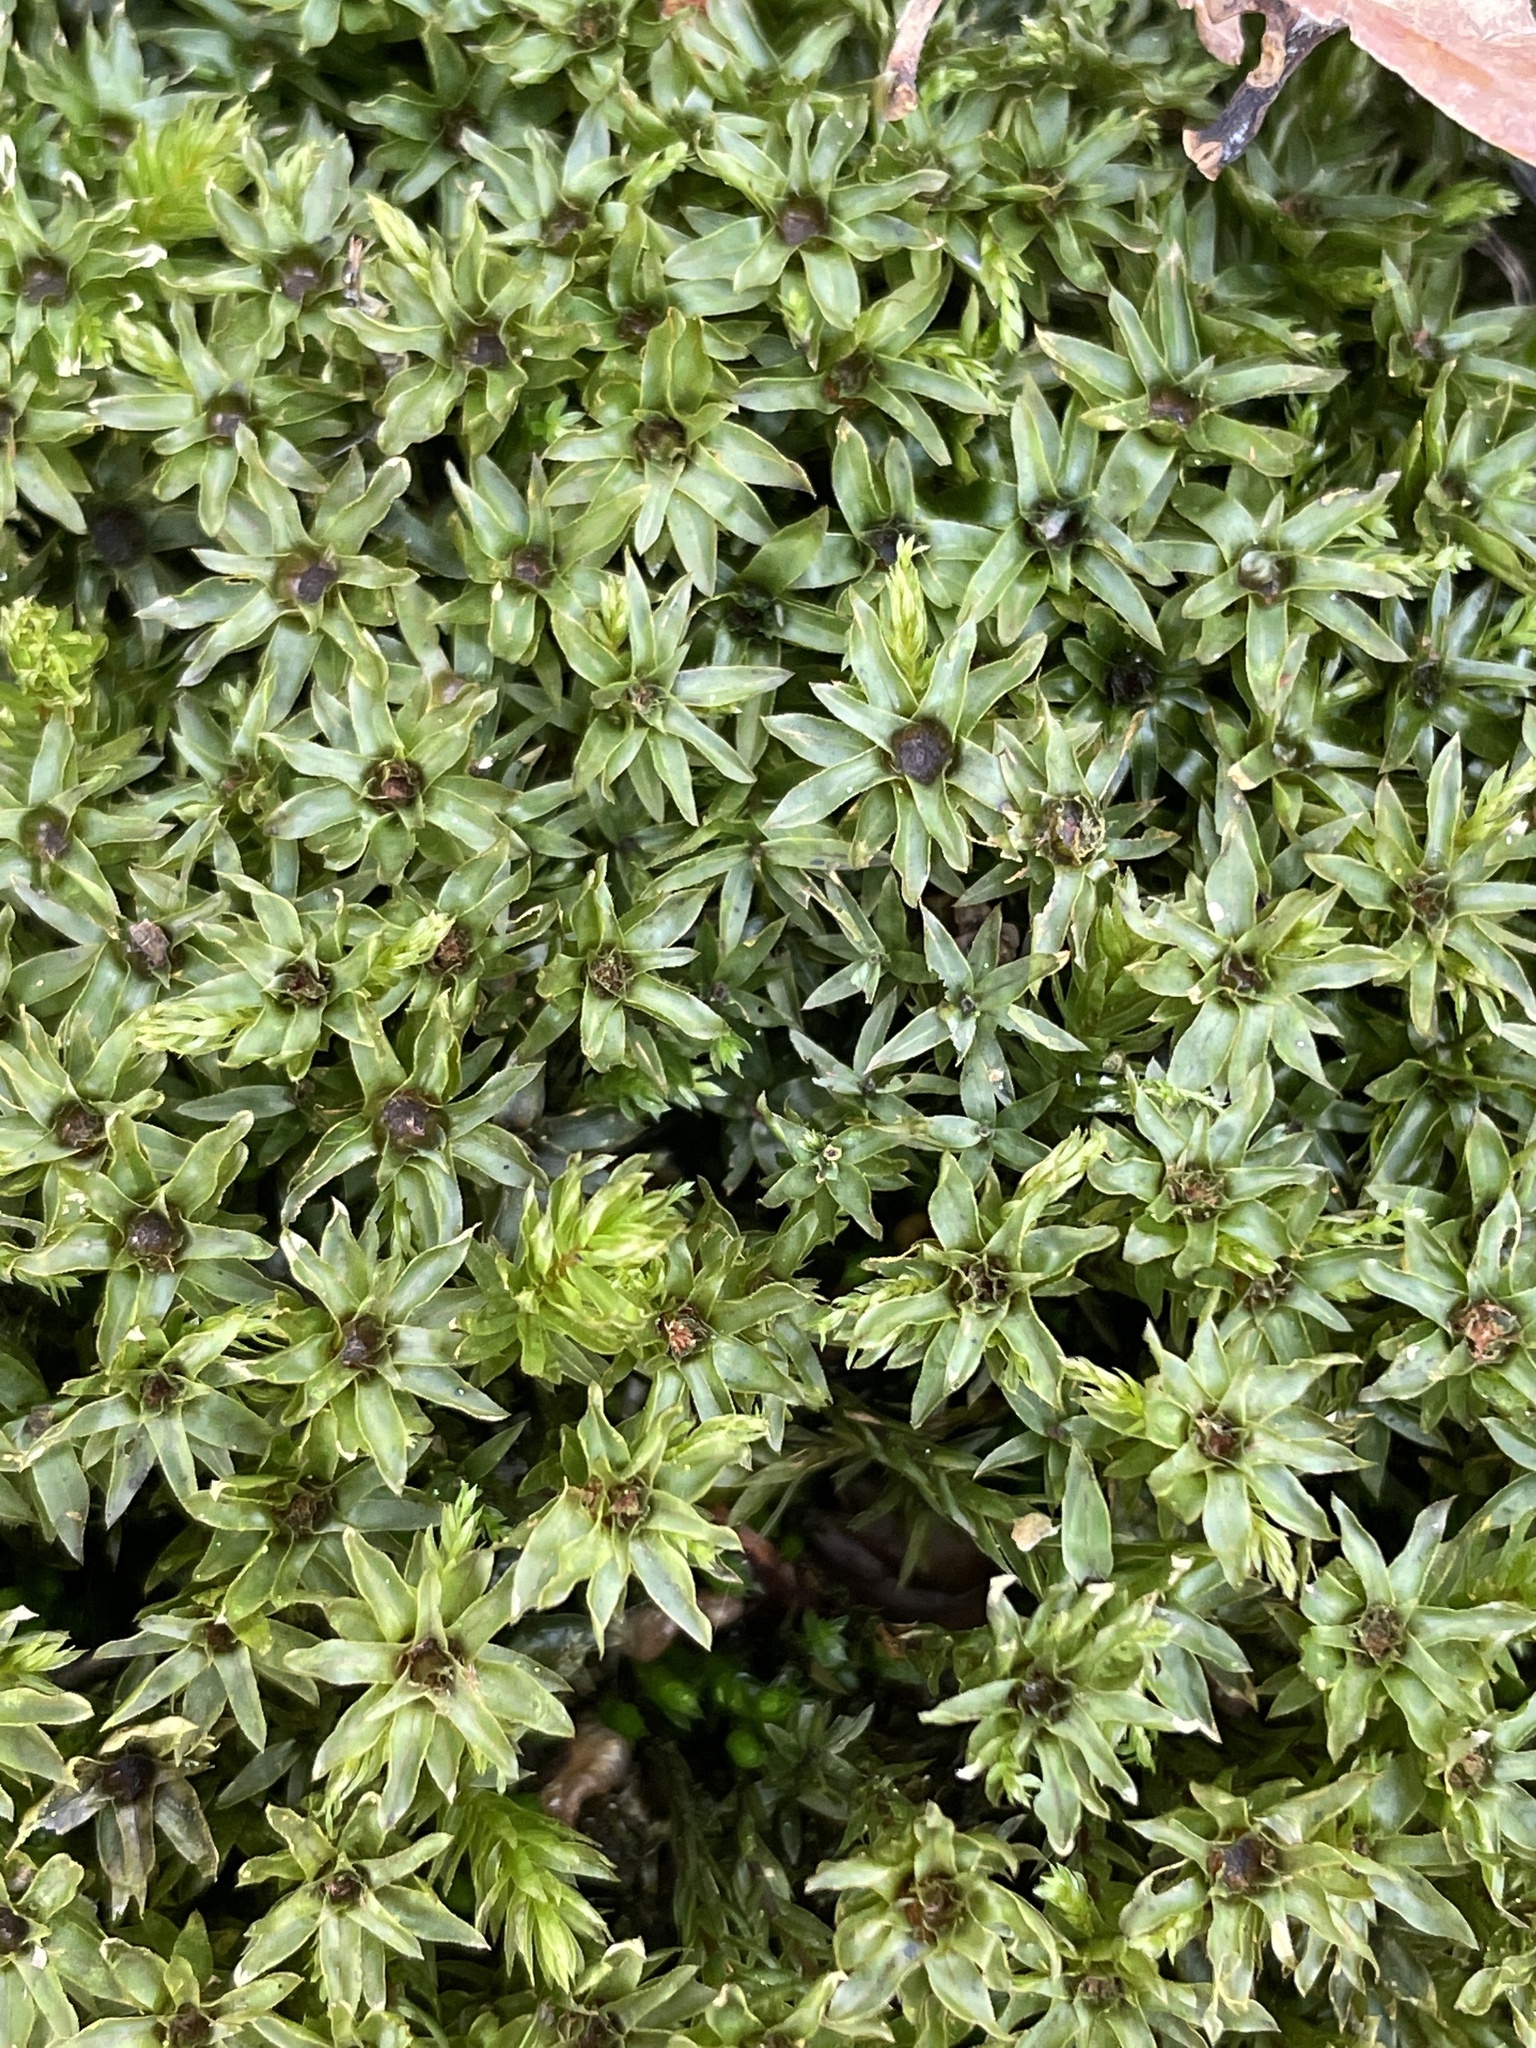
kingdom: Plantae
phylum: Bryophyta
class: Bryopsida
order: Bryales
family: Mniaceae
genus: Mnium
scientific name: Mnium hornum
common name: Swan's-neck leafy moss
